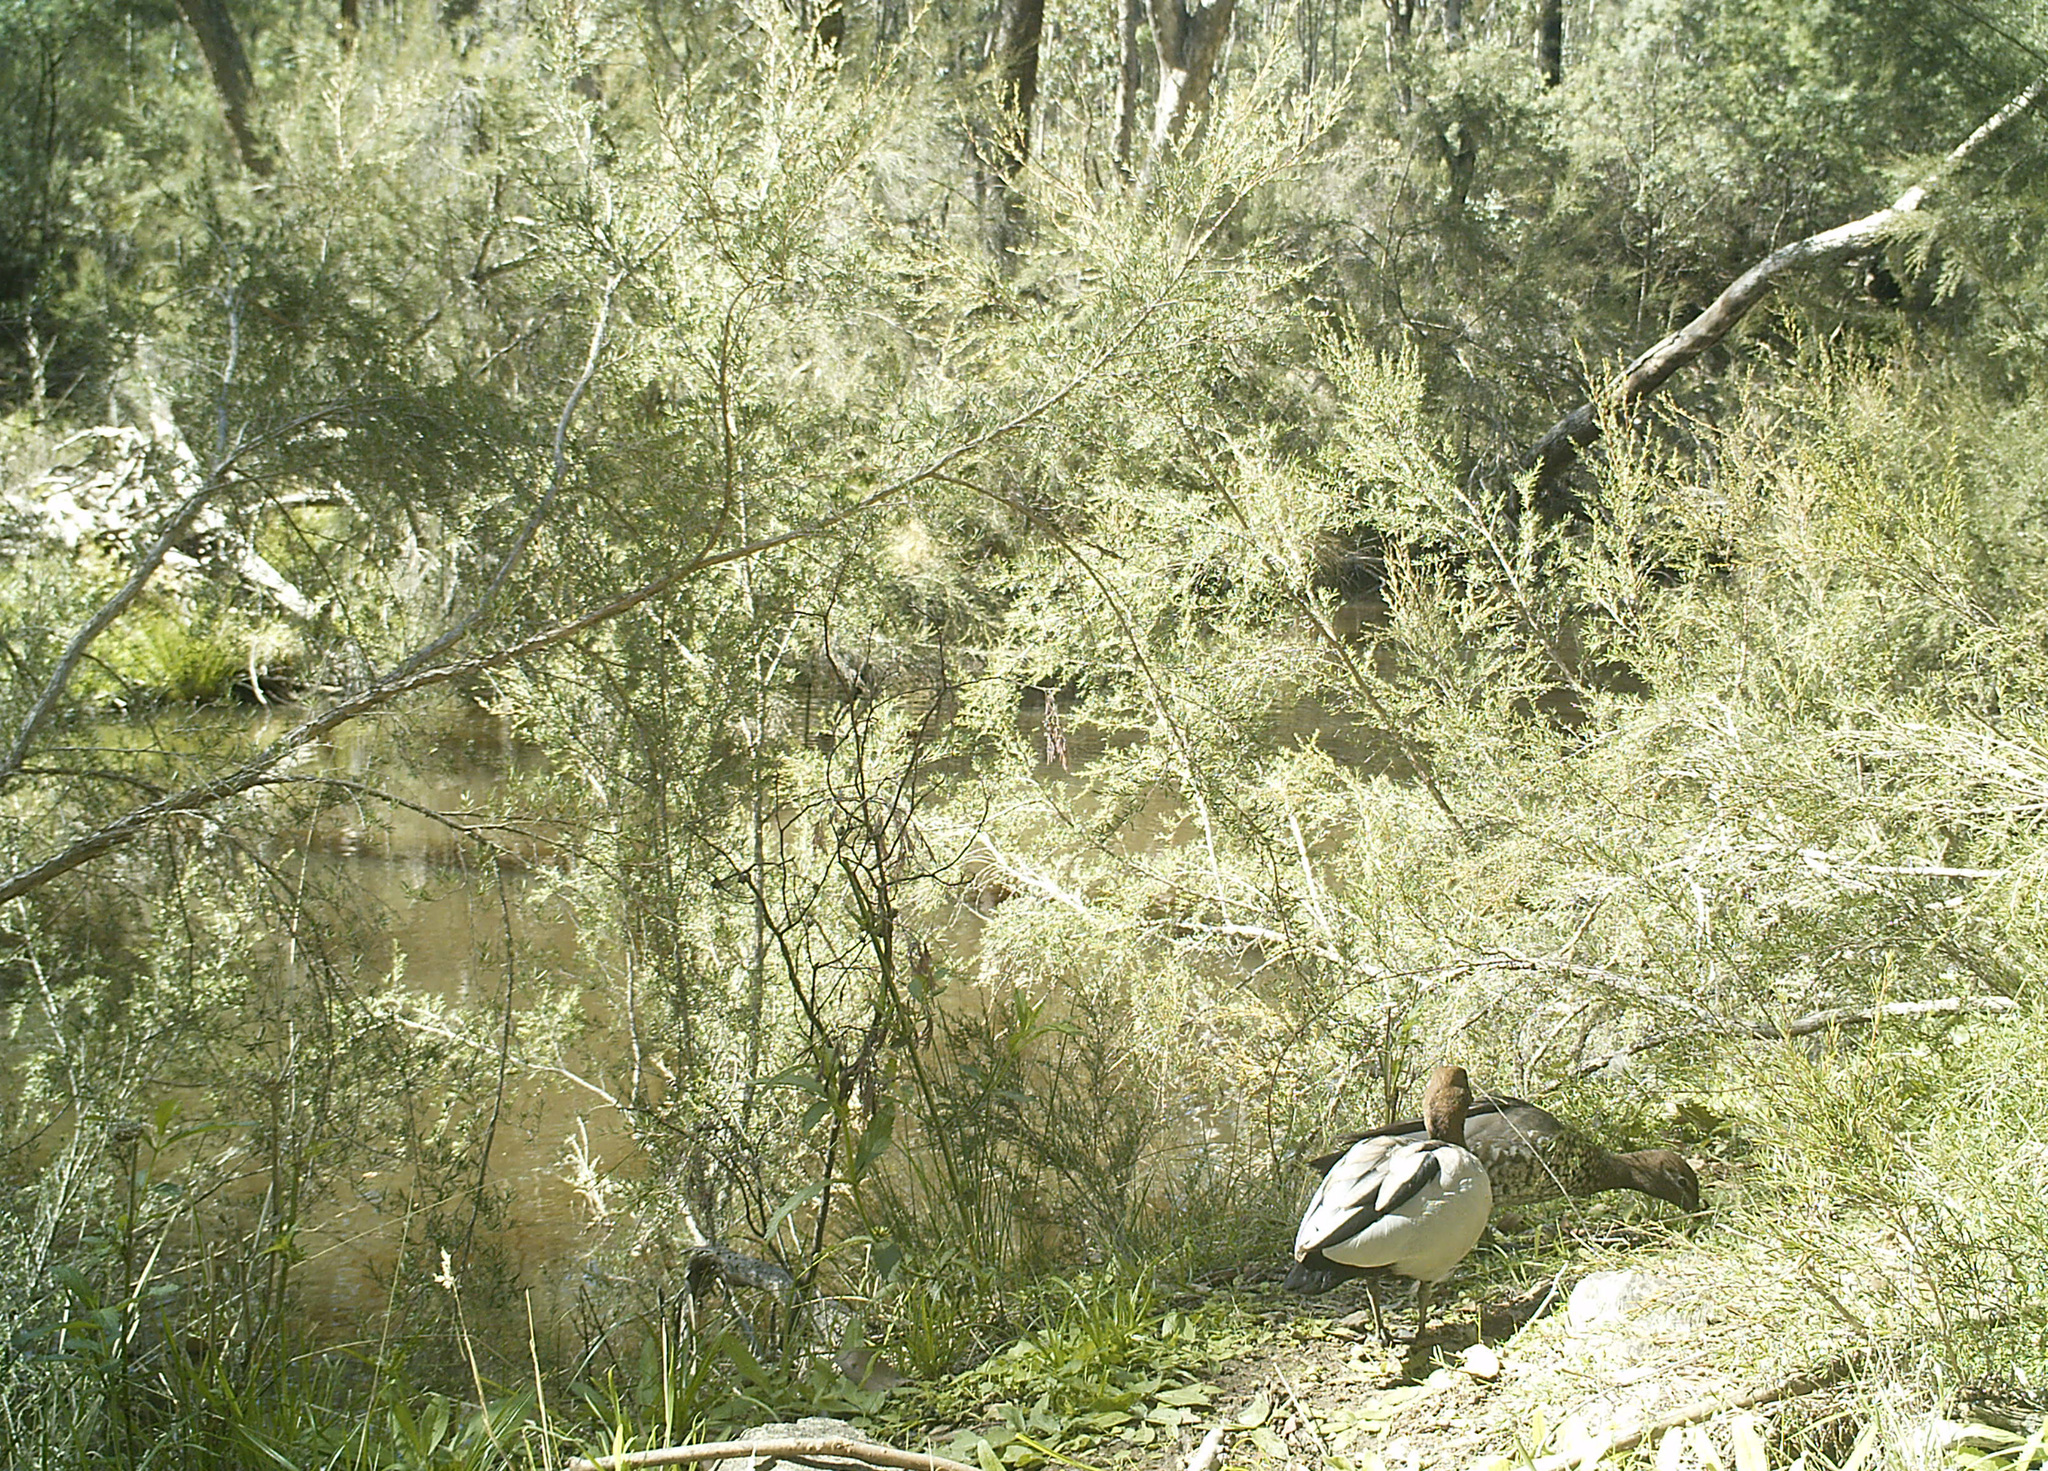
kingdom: Animalia
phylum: Chordata
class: Aves
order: Anseriformes
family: Anatidae
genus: Chenonetta
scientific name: Chenonetta jubata
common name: Maned duck
